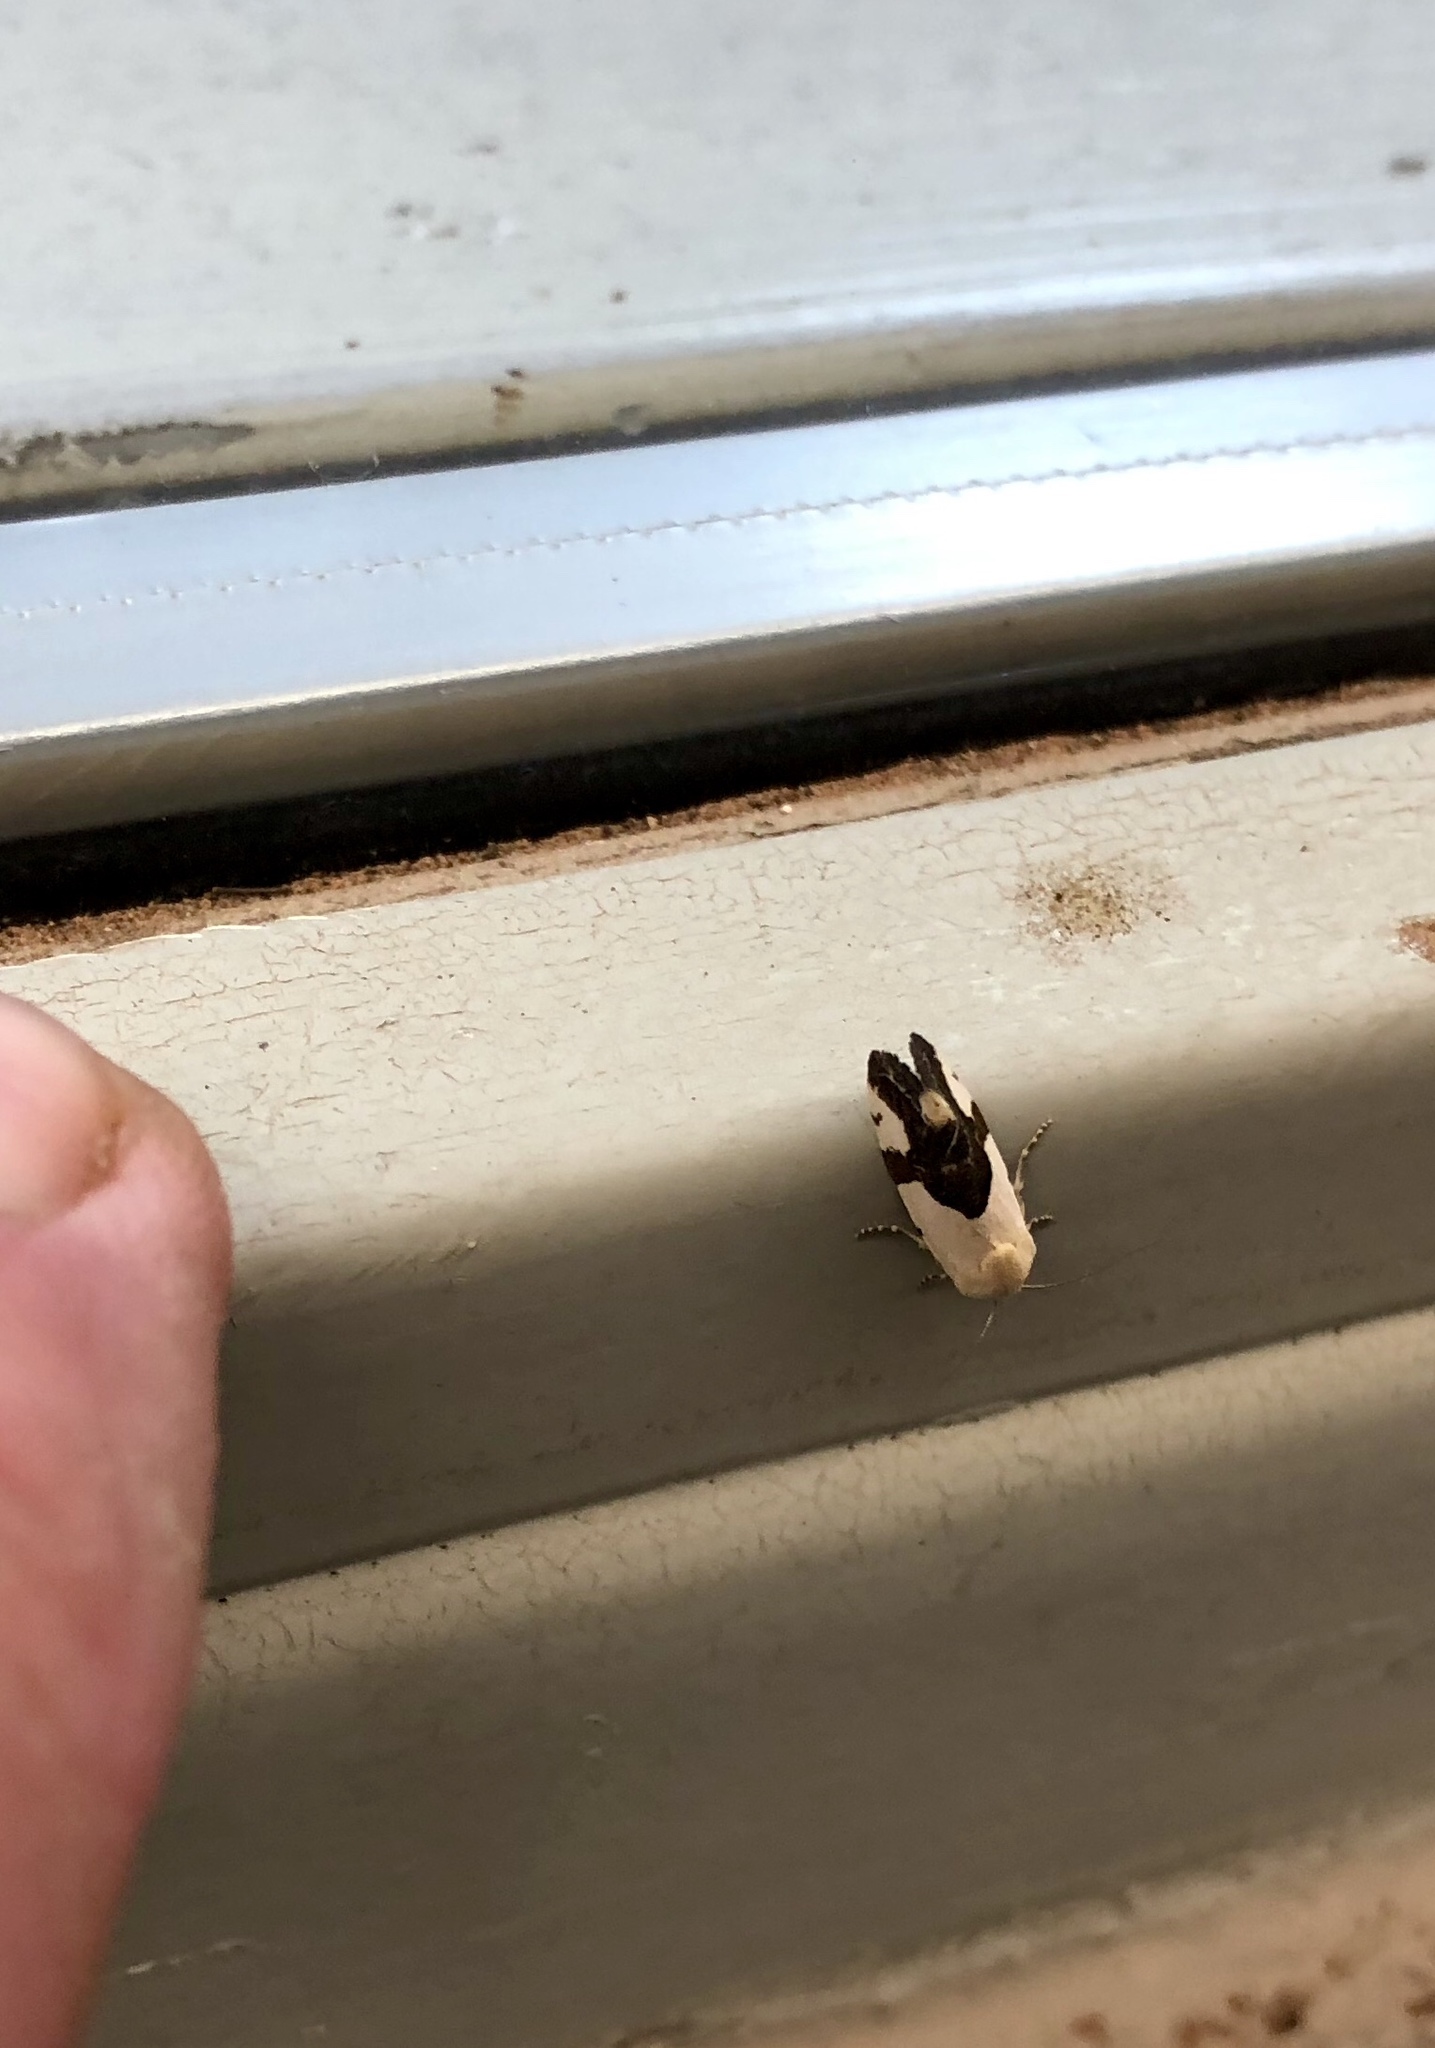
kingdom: Animalia
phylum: Arthropoda
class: Insecta
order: Lepidoptera
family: Noctuidae
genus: Acontia
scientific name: Acontia cuta
